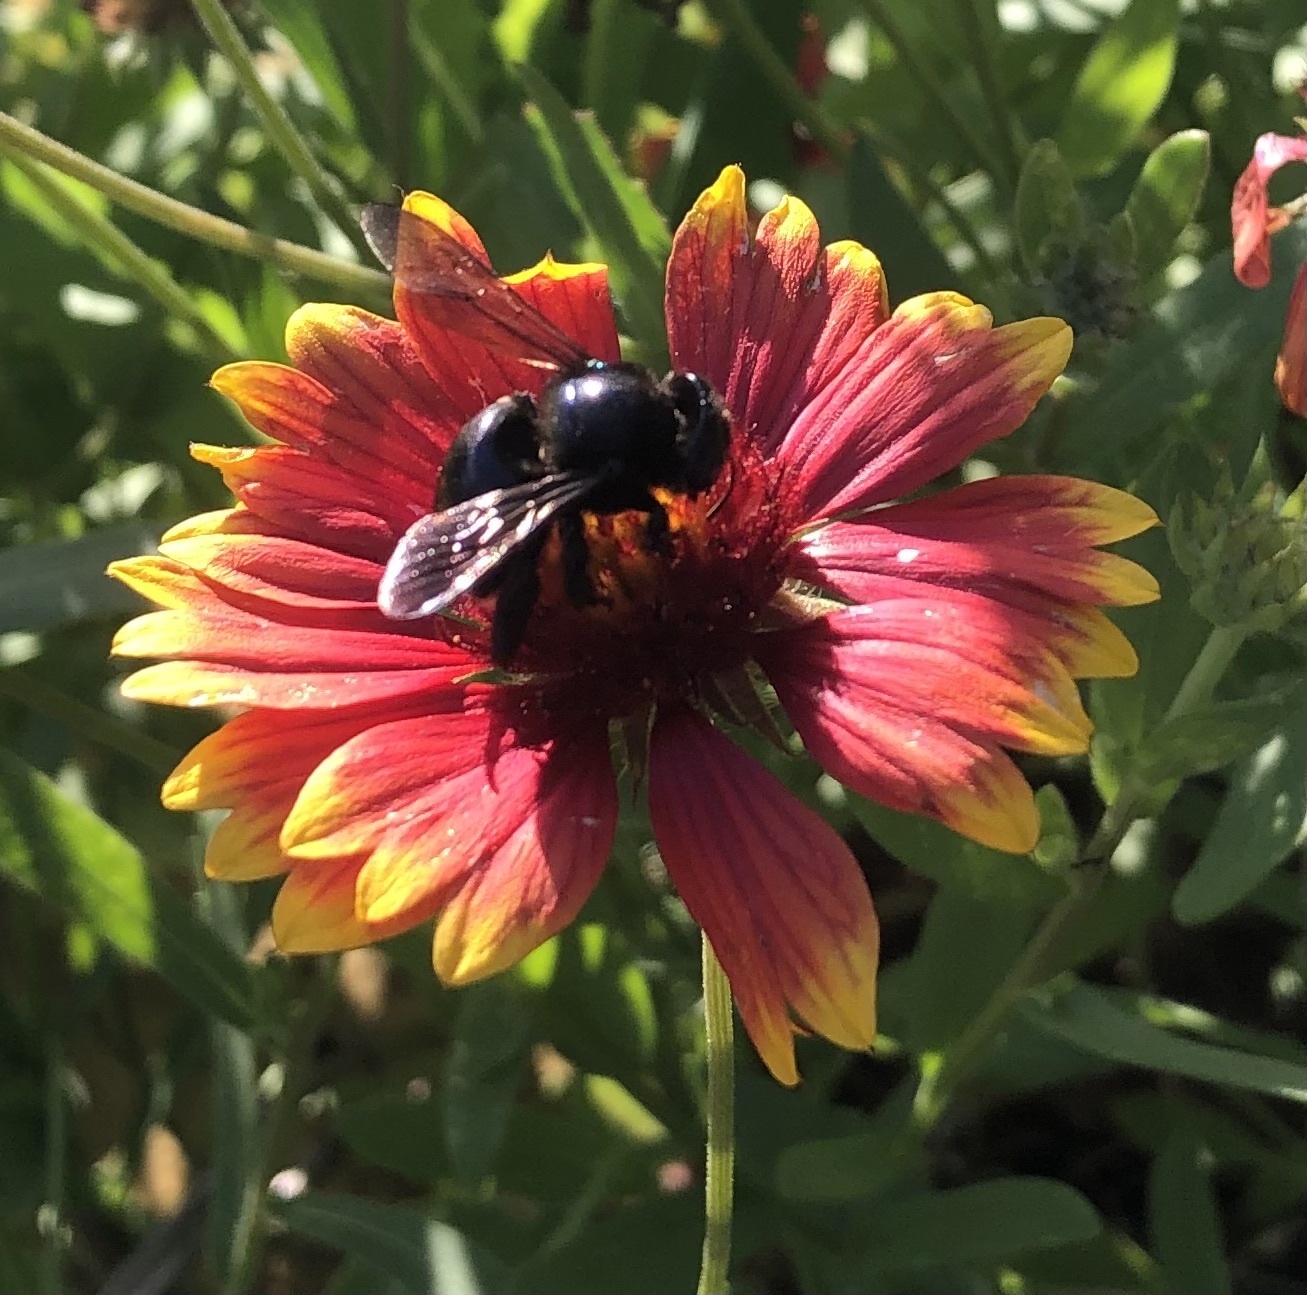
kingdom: Animalia
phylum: Arthropoda
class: Insecta
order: Hymenoptera
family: Apidae
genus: Xylocopa
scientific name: Xylocopa micans
